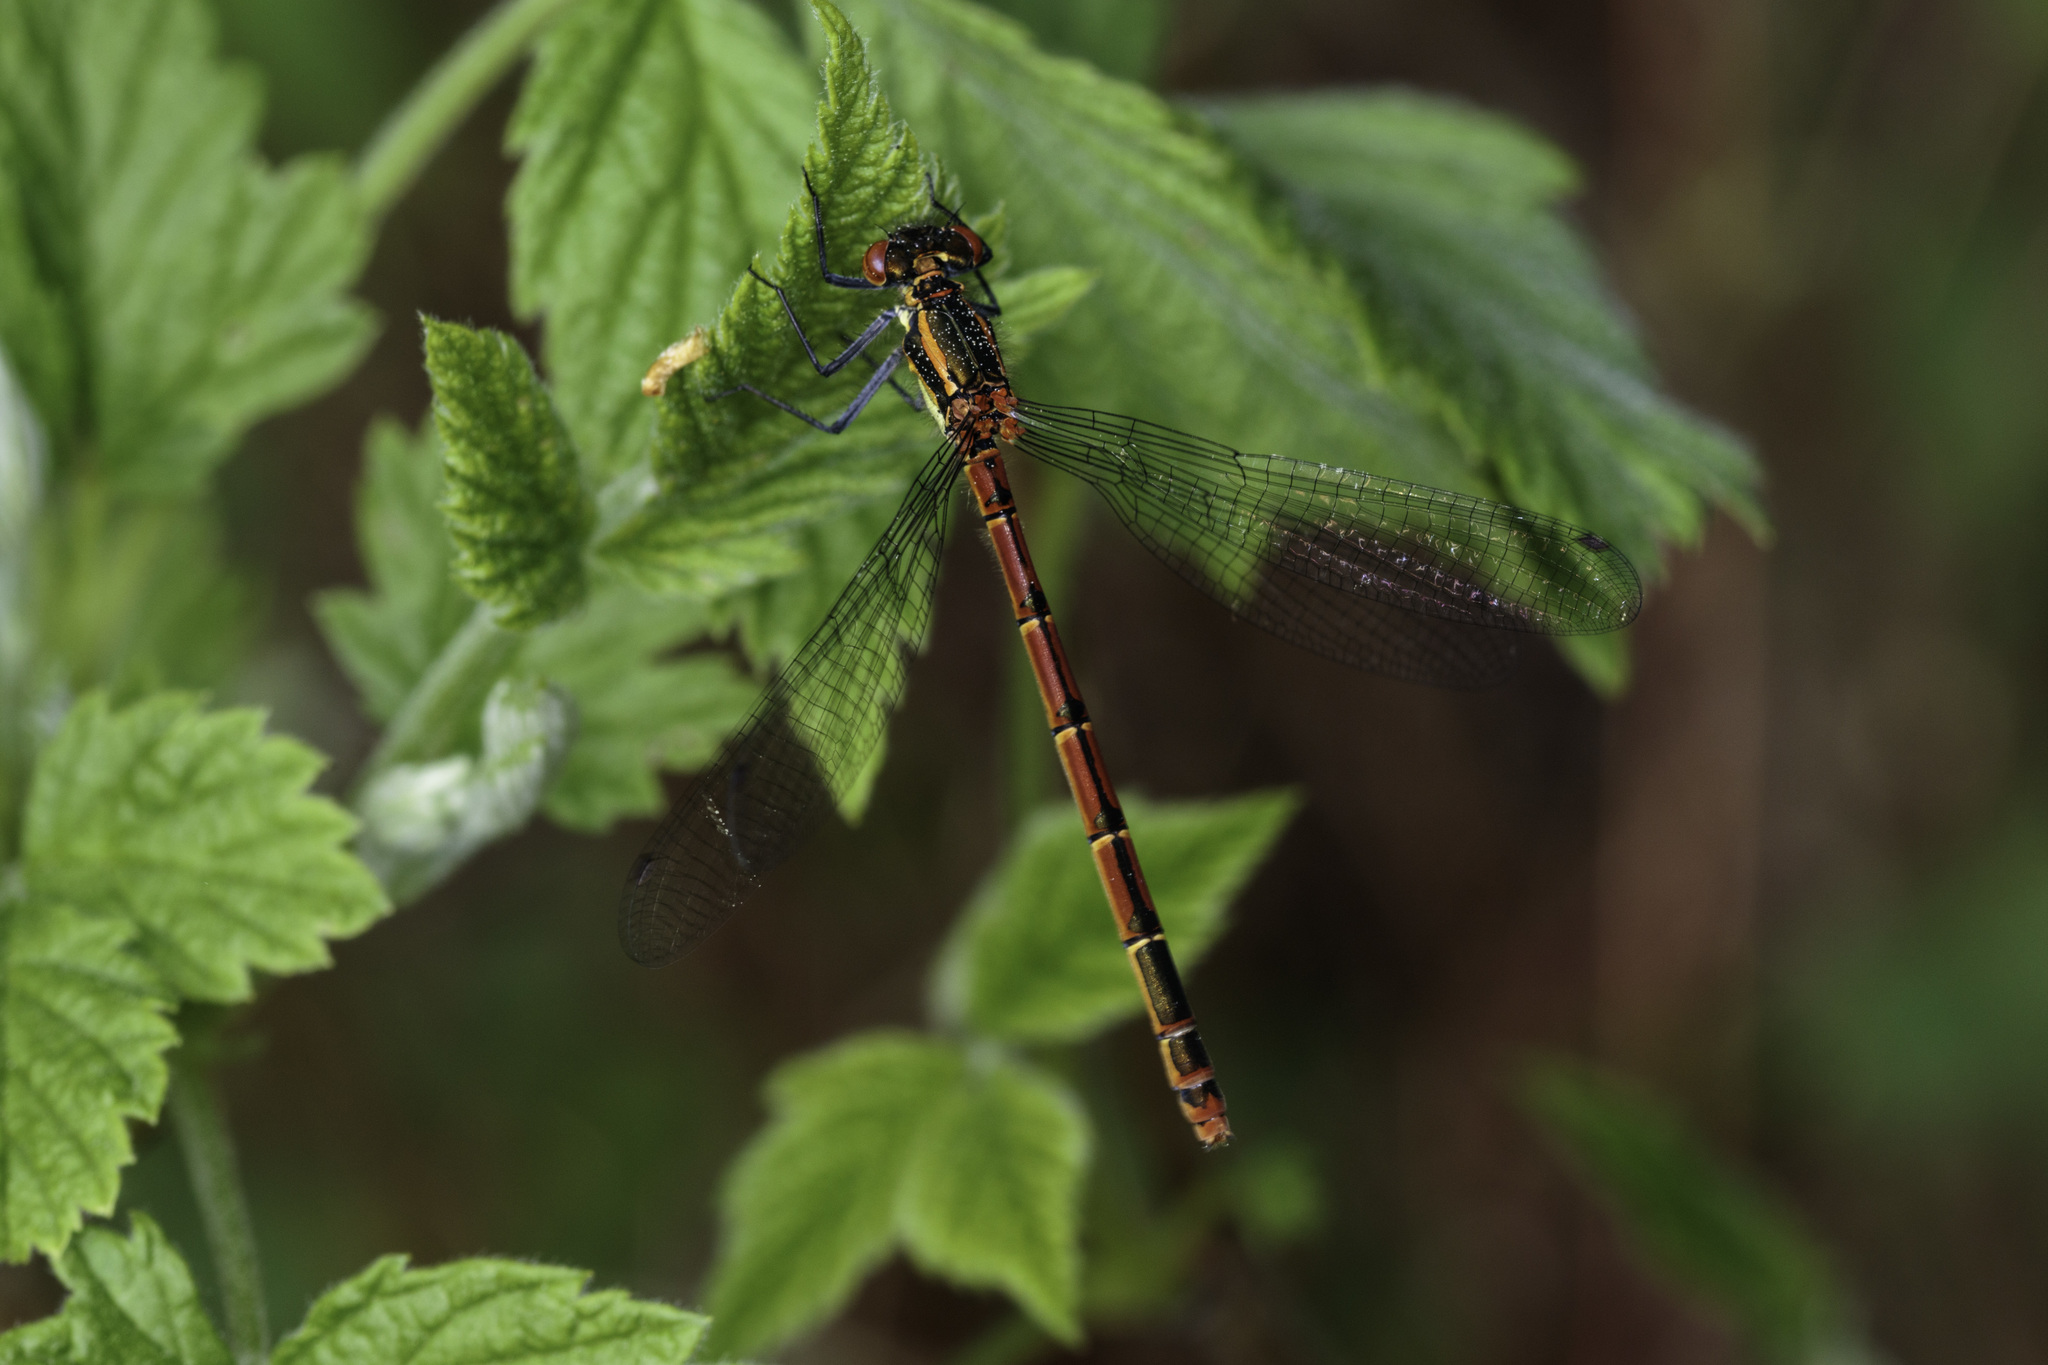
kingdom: Animalia
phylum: Arthropoda
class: Insecta
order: Odonata
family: Coenagrionidae
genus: Pyrrhosoma
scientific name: Pyrrhosoma nymphula
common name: Large red damsel
